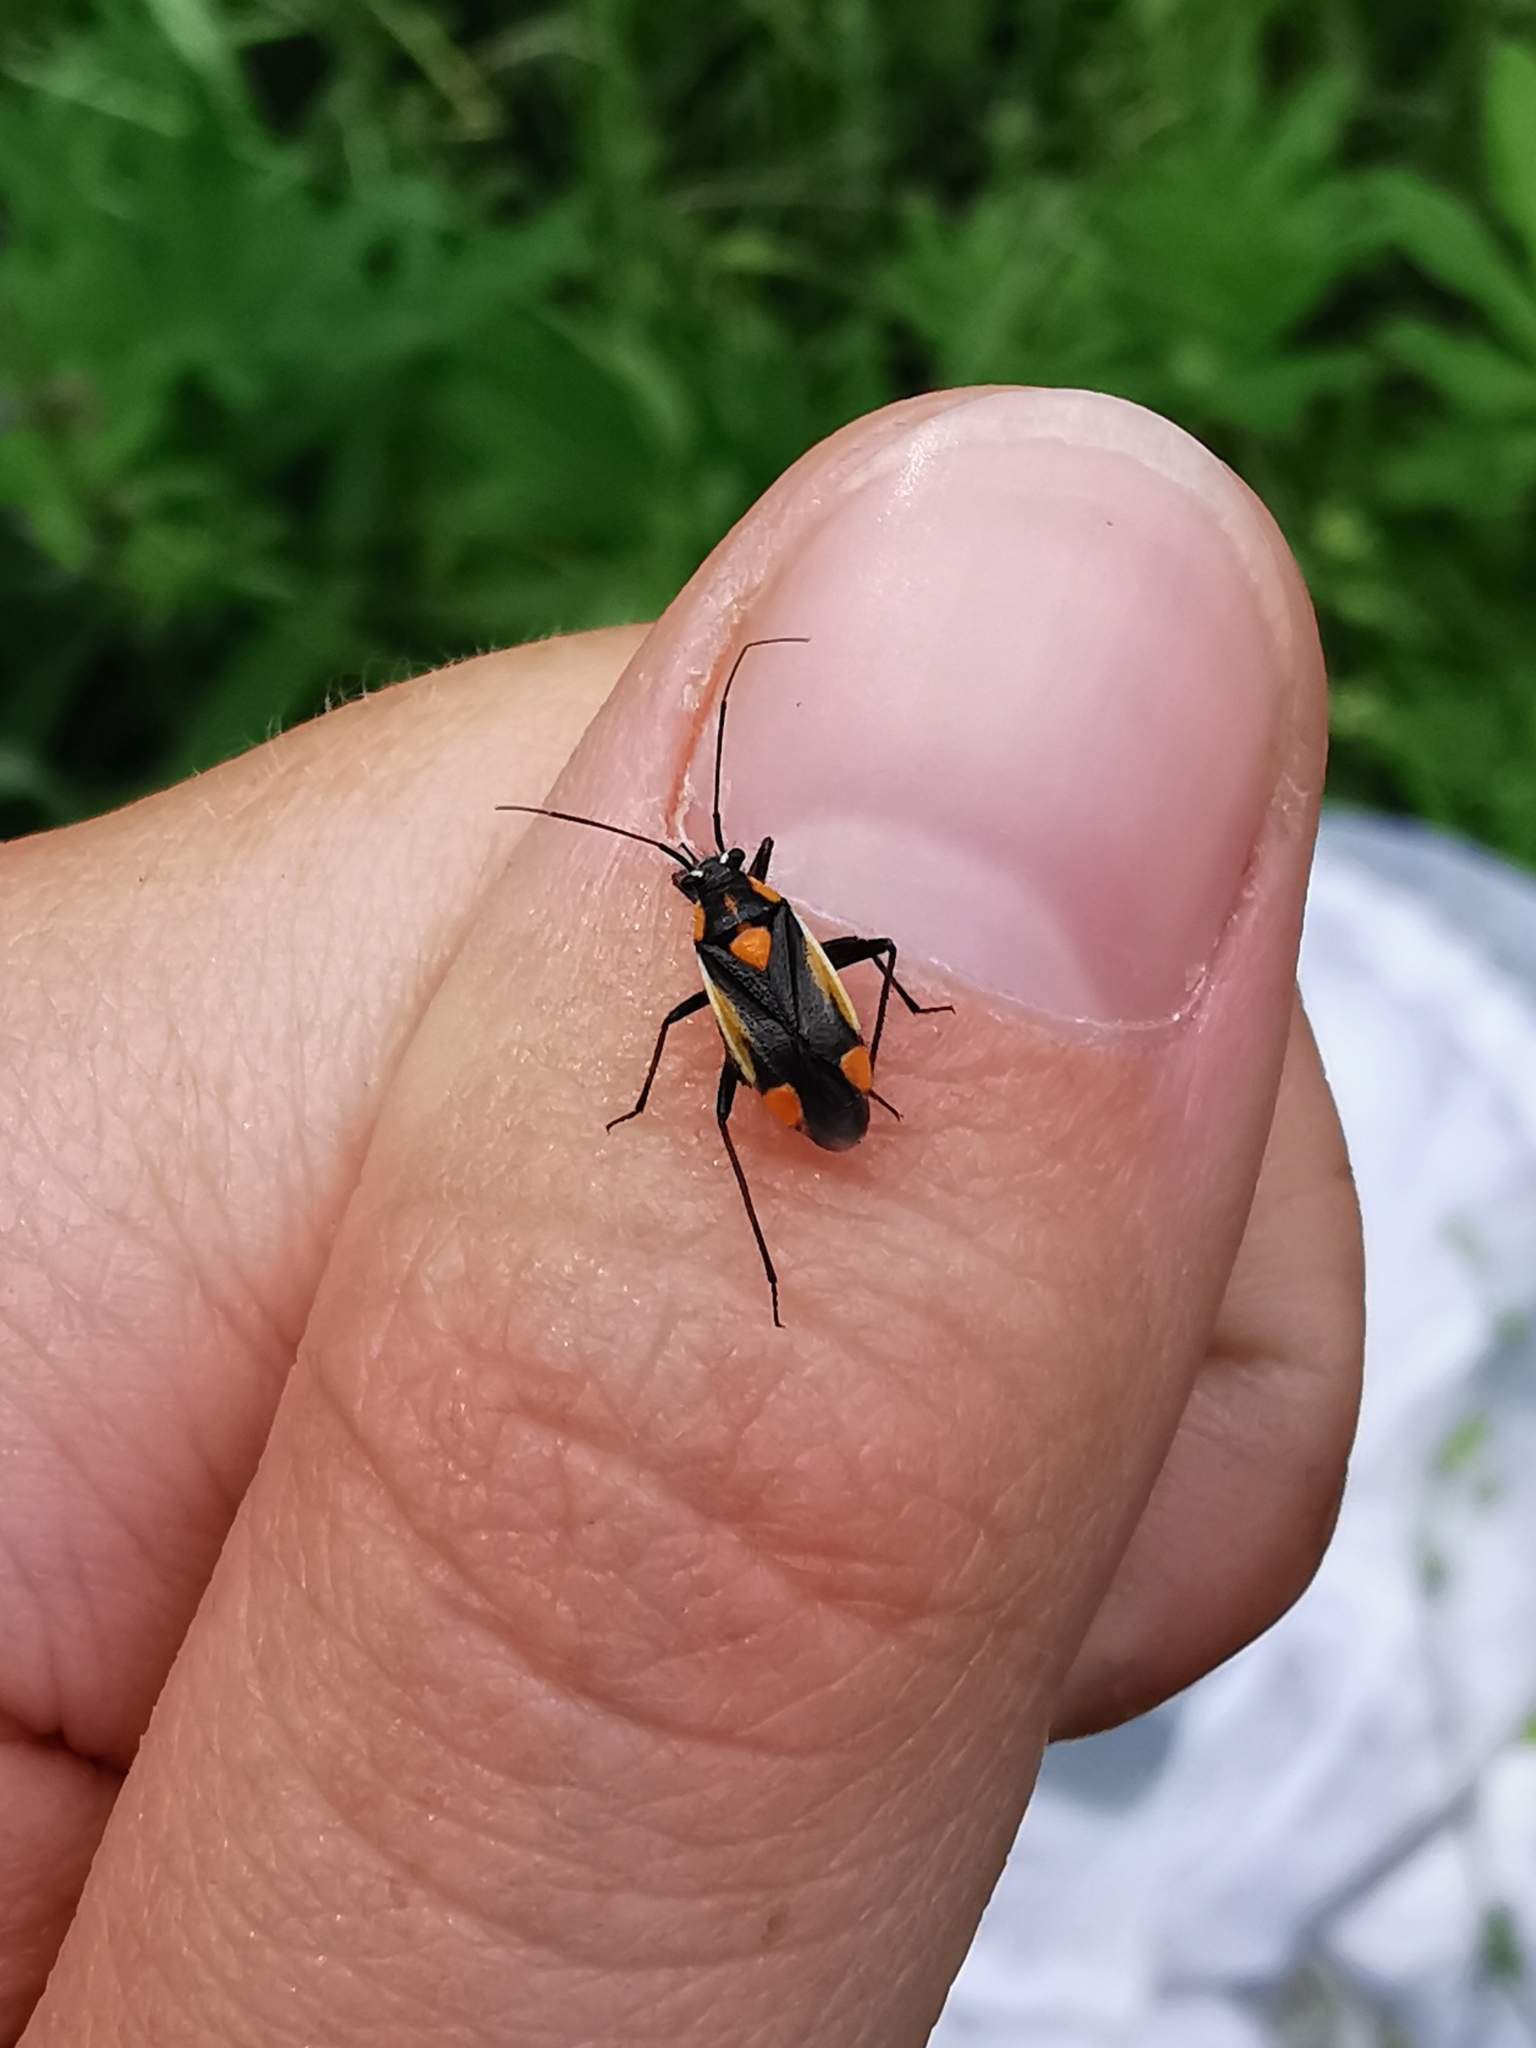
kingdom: Animalia
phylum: Arthropoda
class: Insecta
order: Hemiptera
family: Miridae
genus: Capsodes
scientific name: Capsodes gothicus
